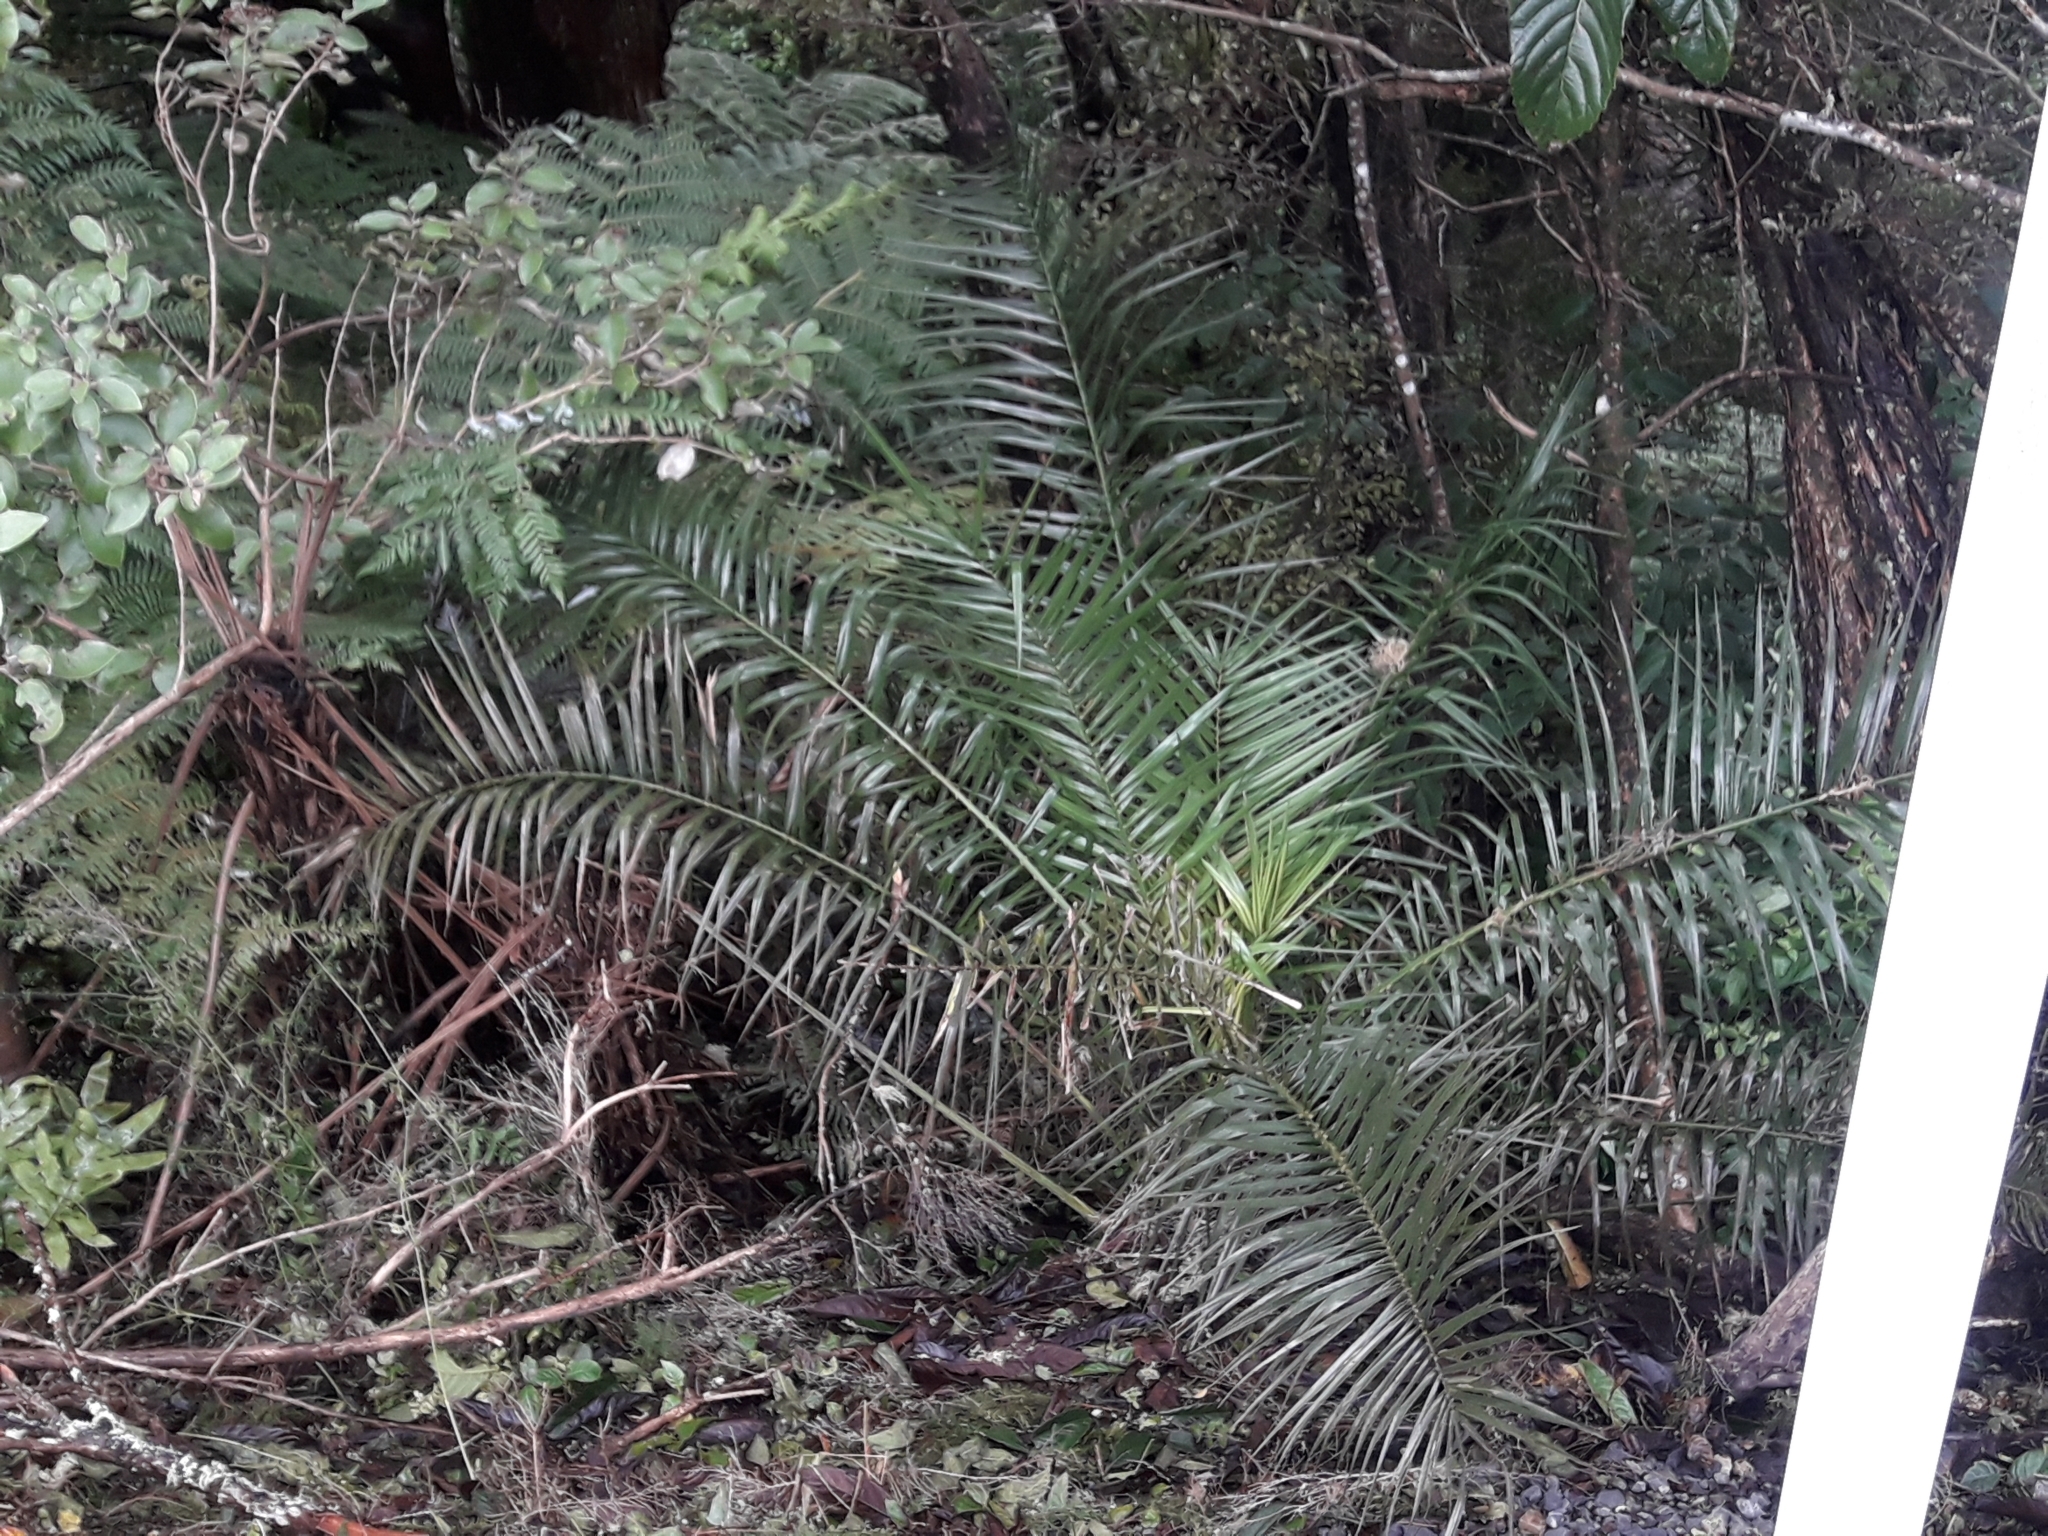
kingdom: Plantae
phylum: Tracheophyta
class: Liliopsida
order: Arecales
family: Arecaceae
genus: Phoenix
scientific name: Phoenix canariensis
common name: Canary island date palm
